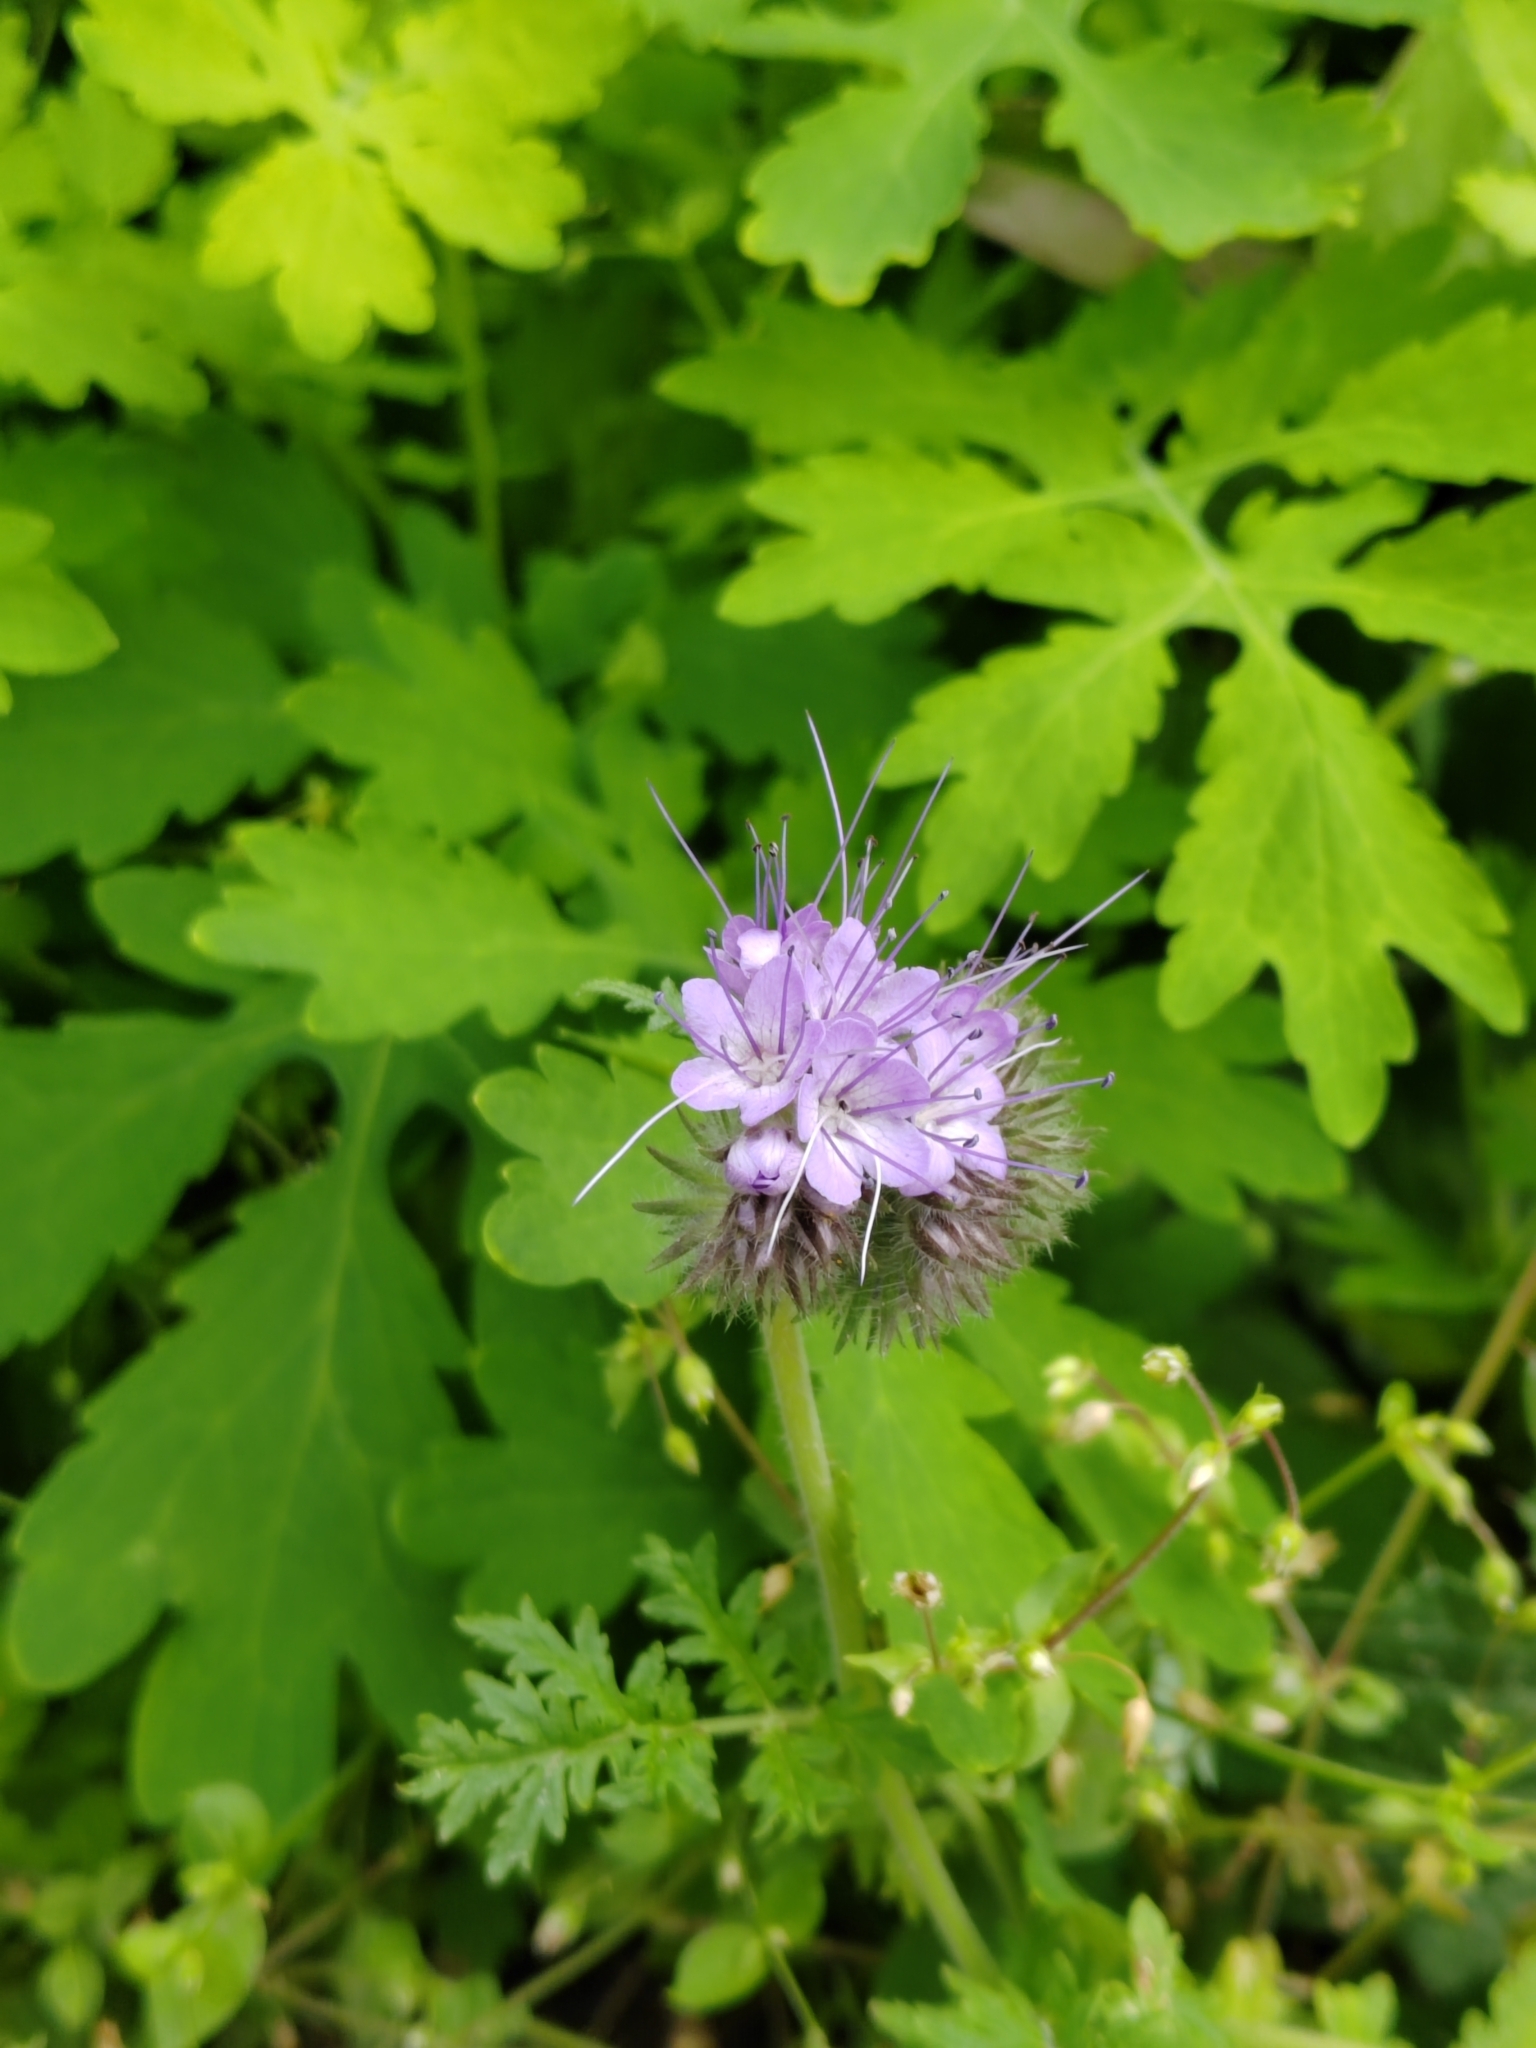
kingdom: Plantae
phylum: Tracheophyta
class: Magnoliopsida
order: Boraginales
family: Hydrophyllaceae
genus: Phacelia
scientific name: Phacelia tanacetifolia
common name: Phacelia
